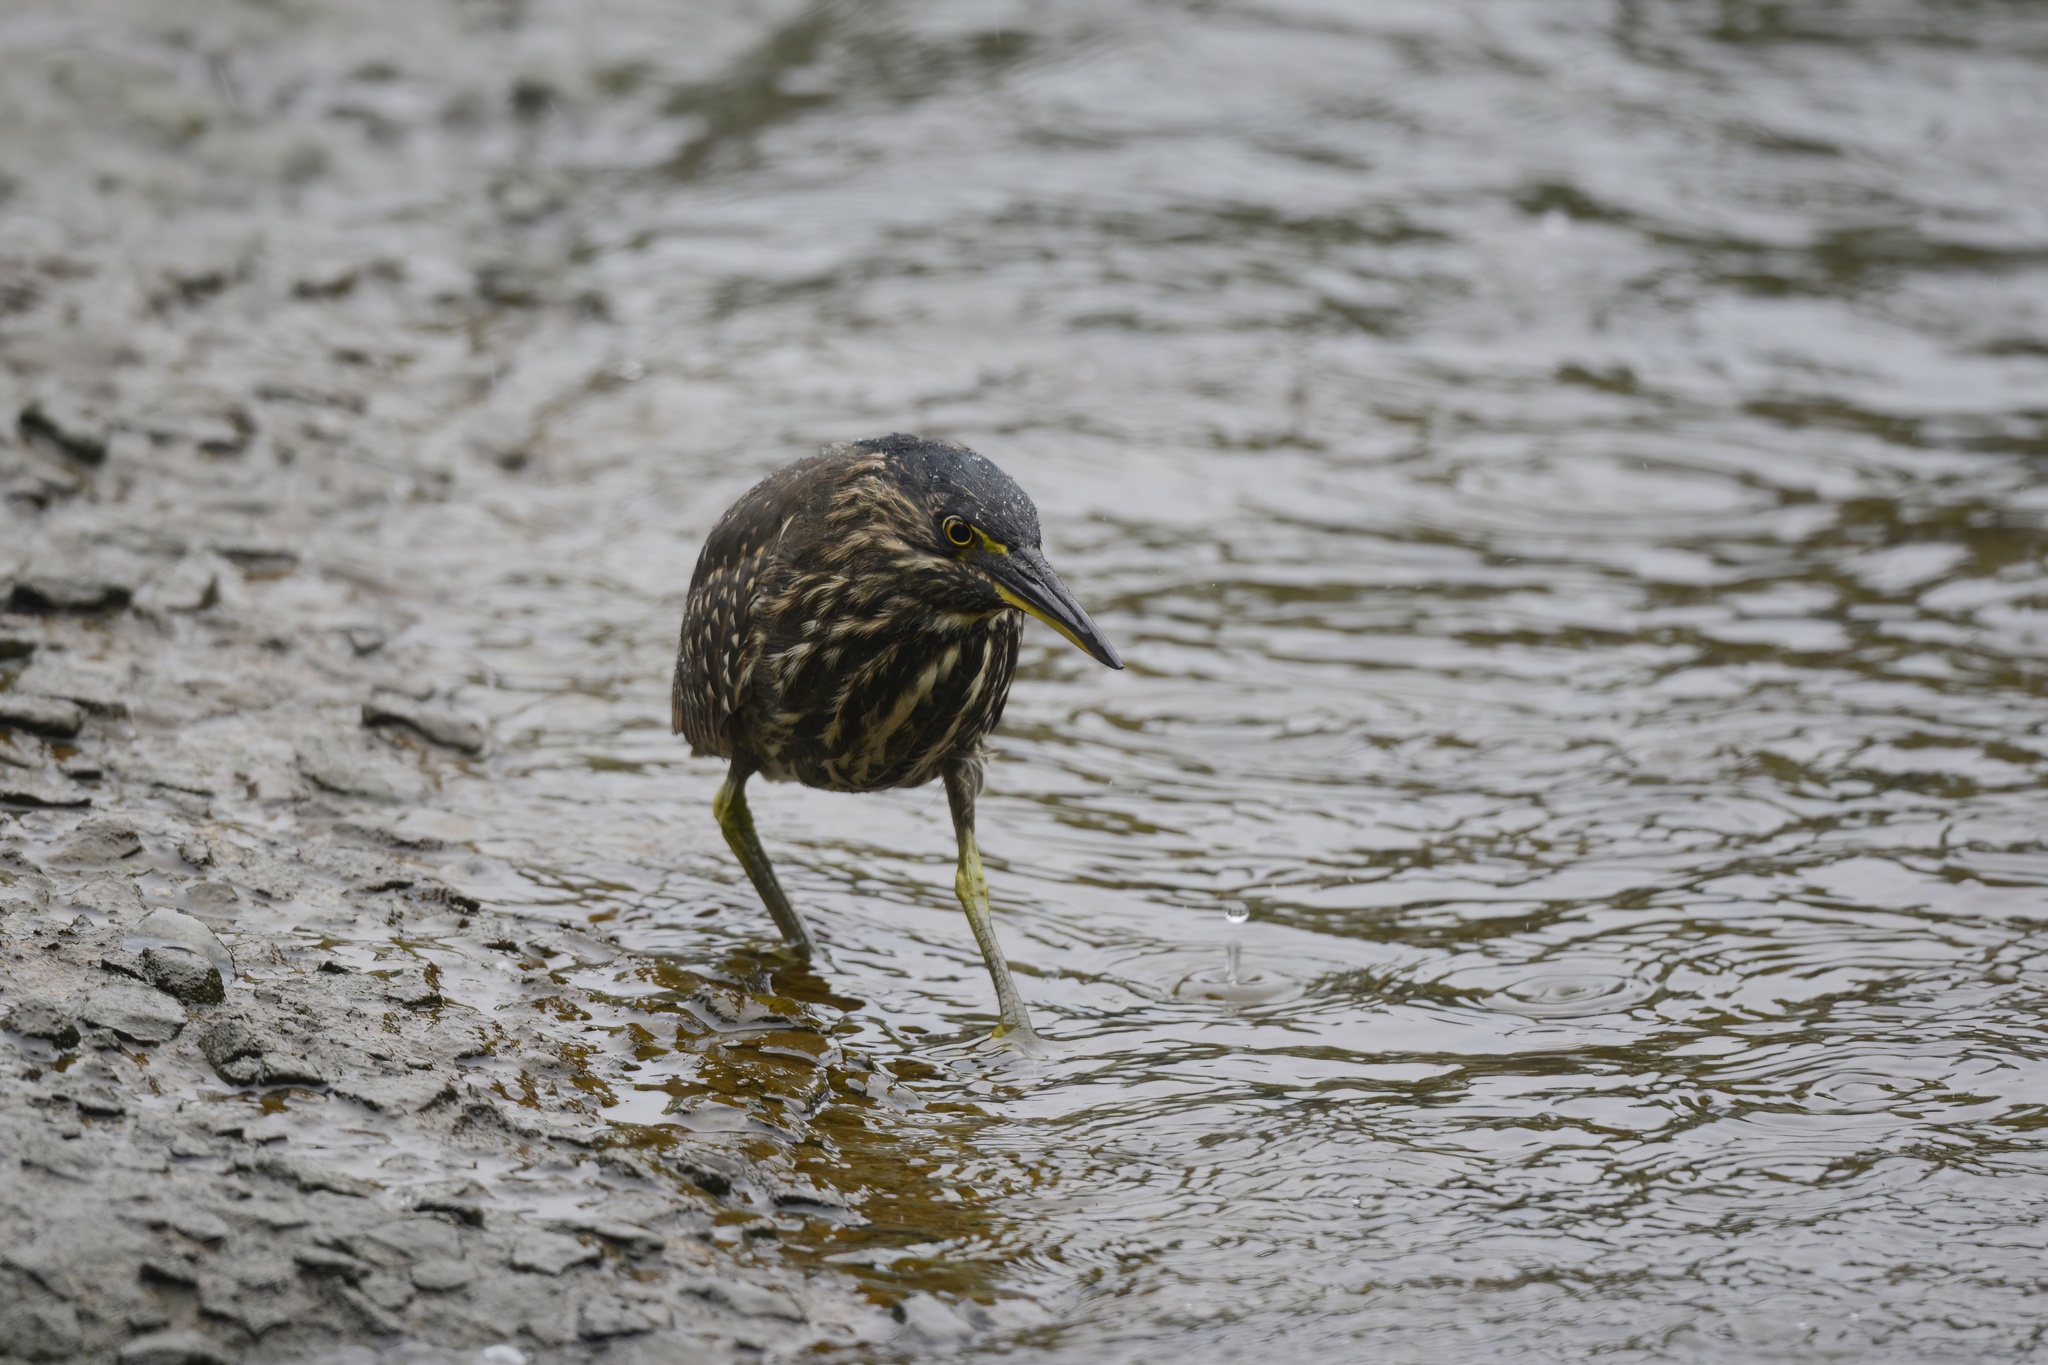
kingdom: Animalia
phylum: Chordata
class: Aves
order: Pelecaniformes
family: Ardeidae
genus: Butorides
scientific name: Butorides striata
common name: Striated heron
